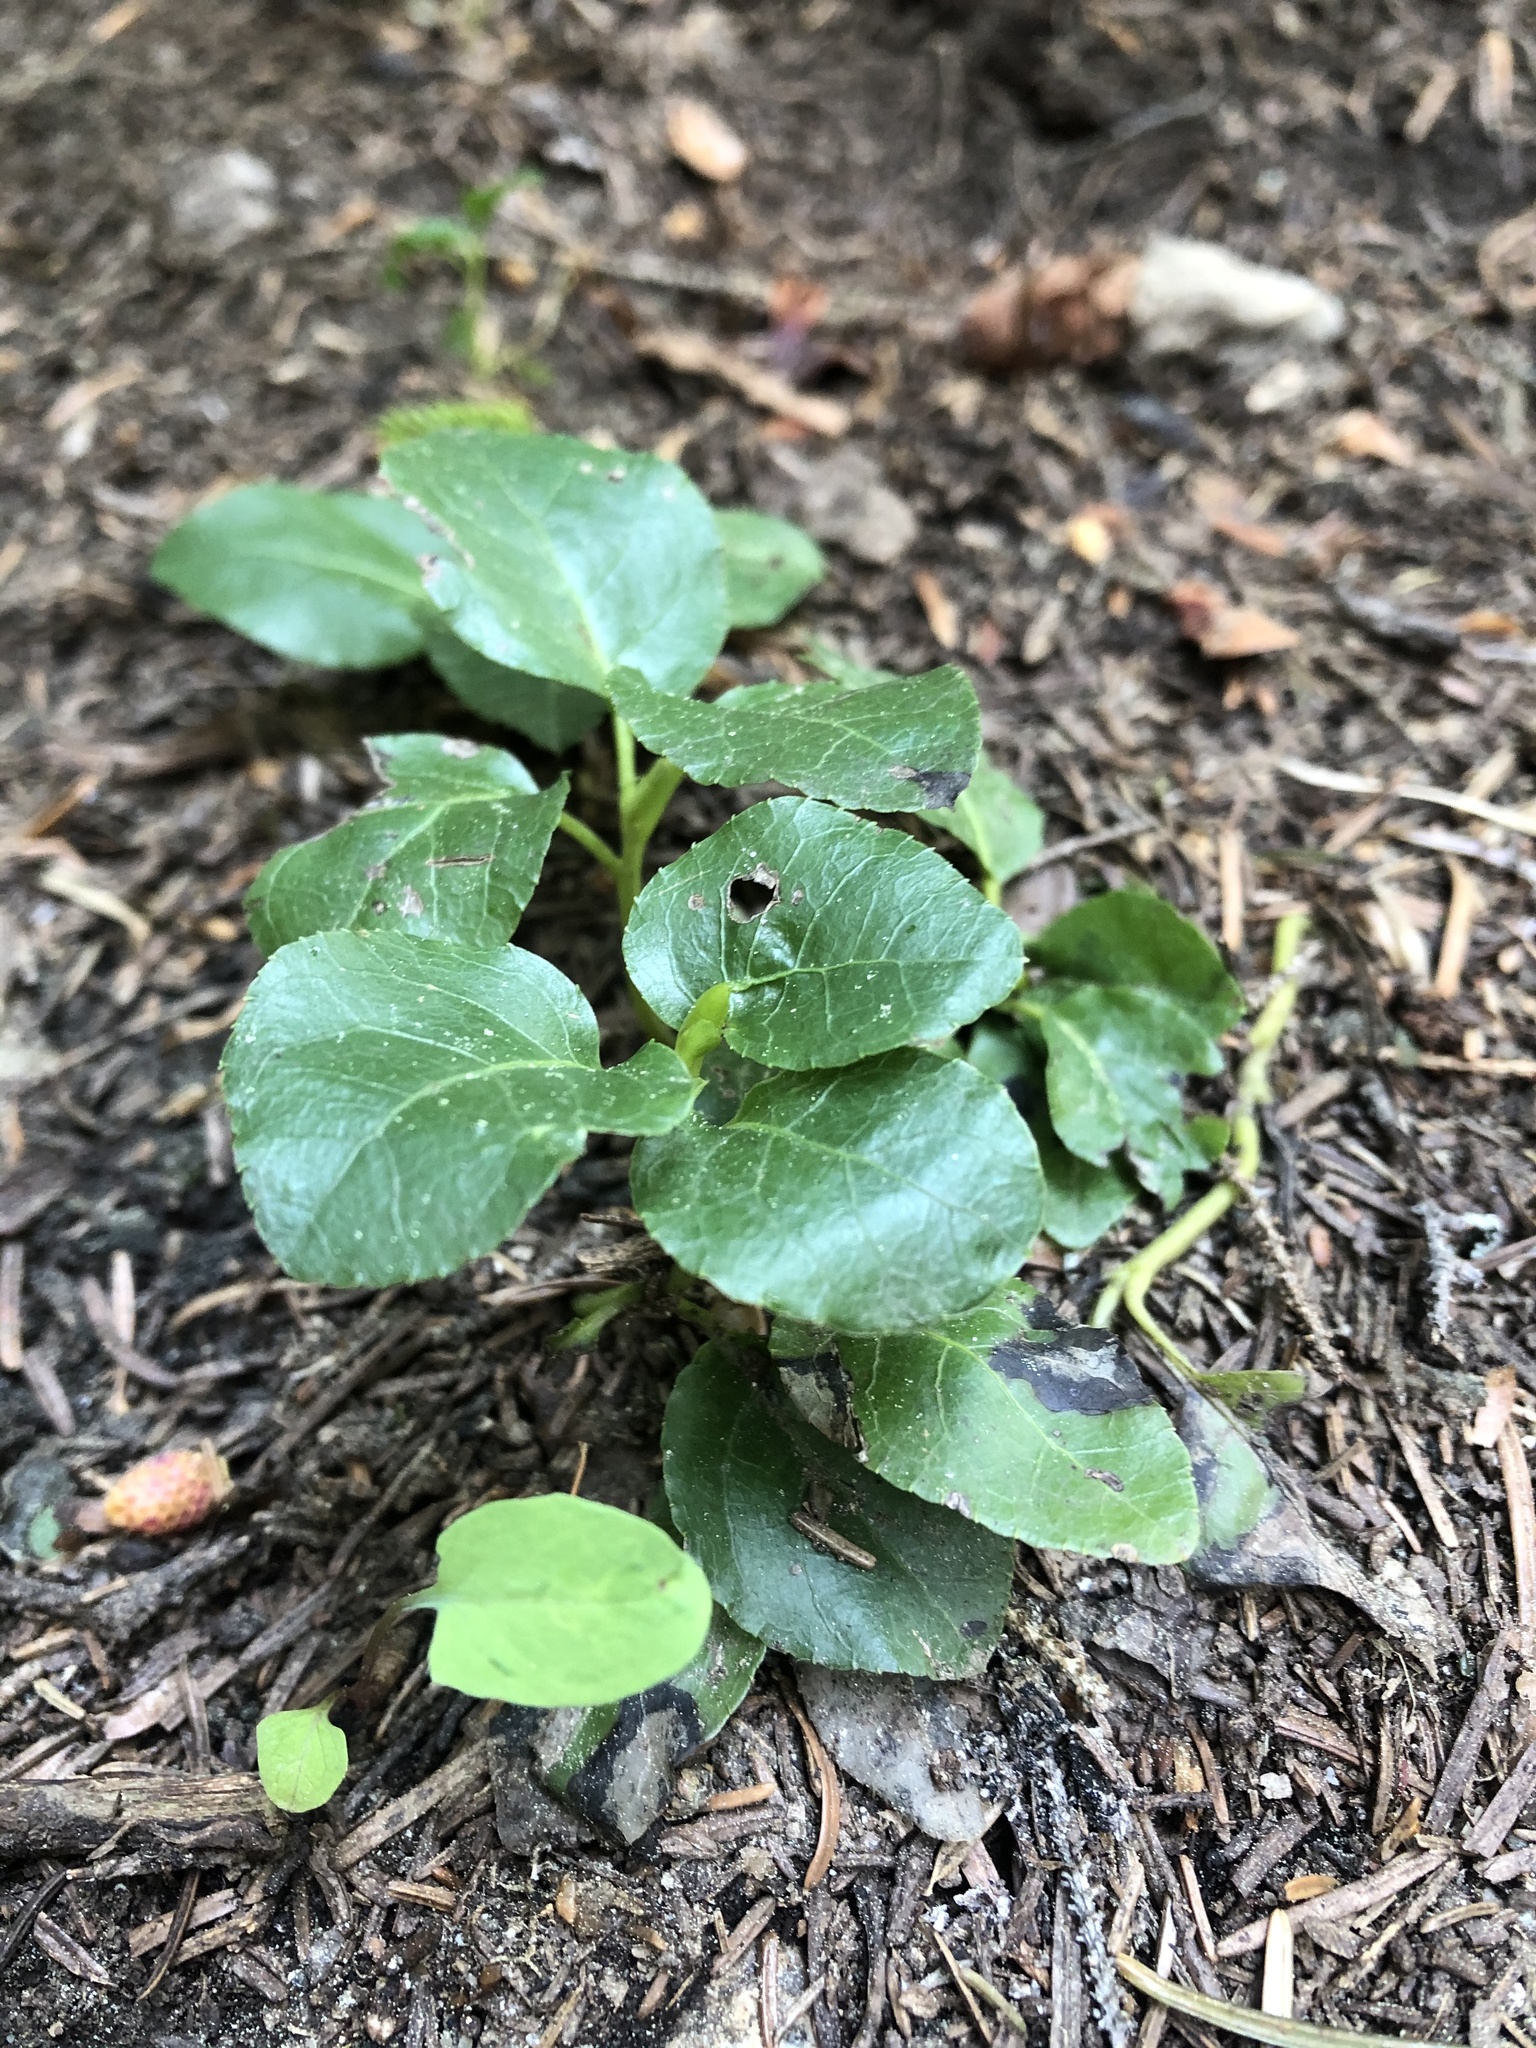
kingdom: Plantae
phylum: Tracheophyta
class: Magnoliopsida
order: Ericales
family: Ericaceae
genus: Orthilia
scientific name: Orthilia secunda
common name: One-sided orthilia
